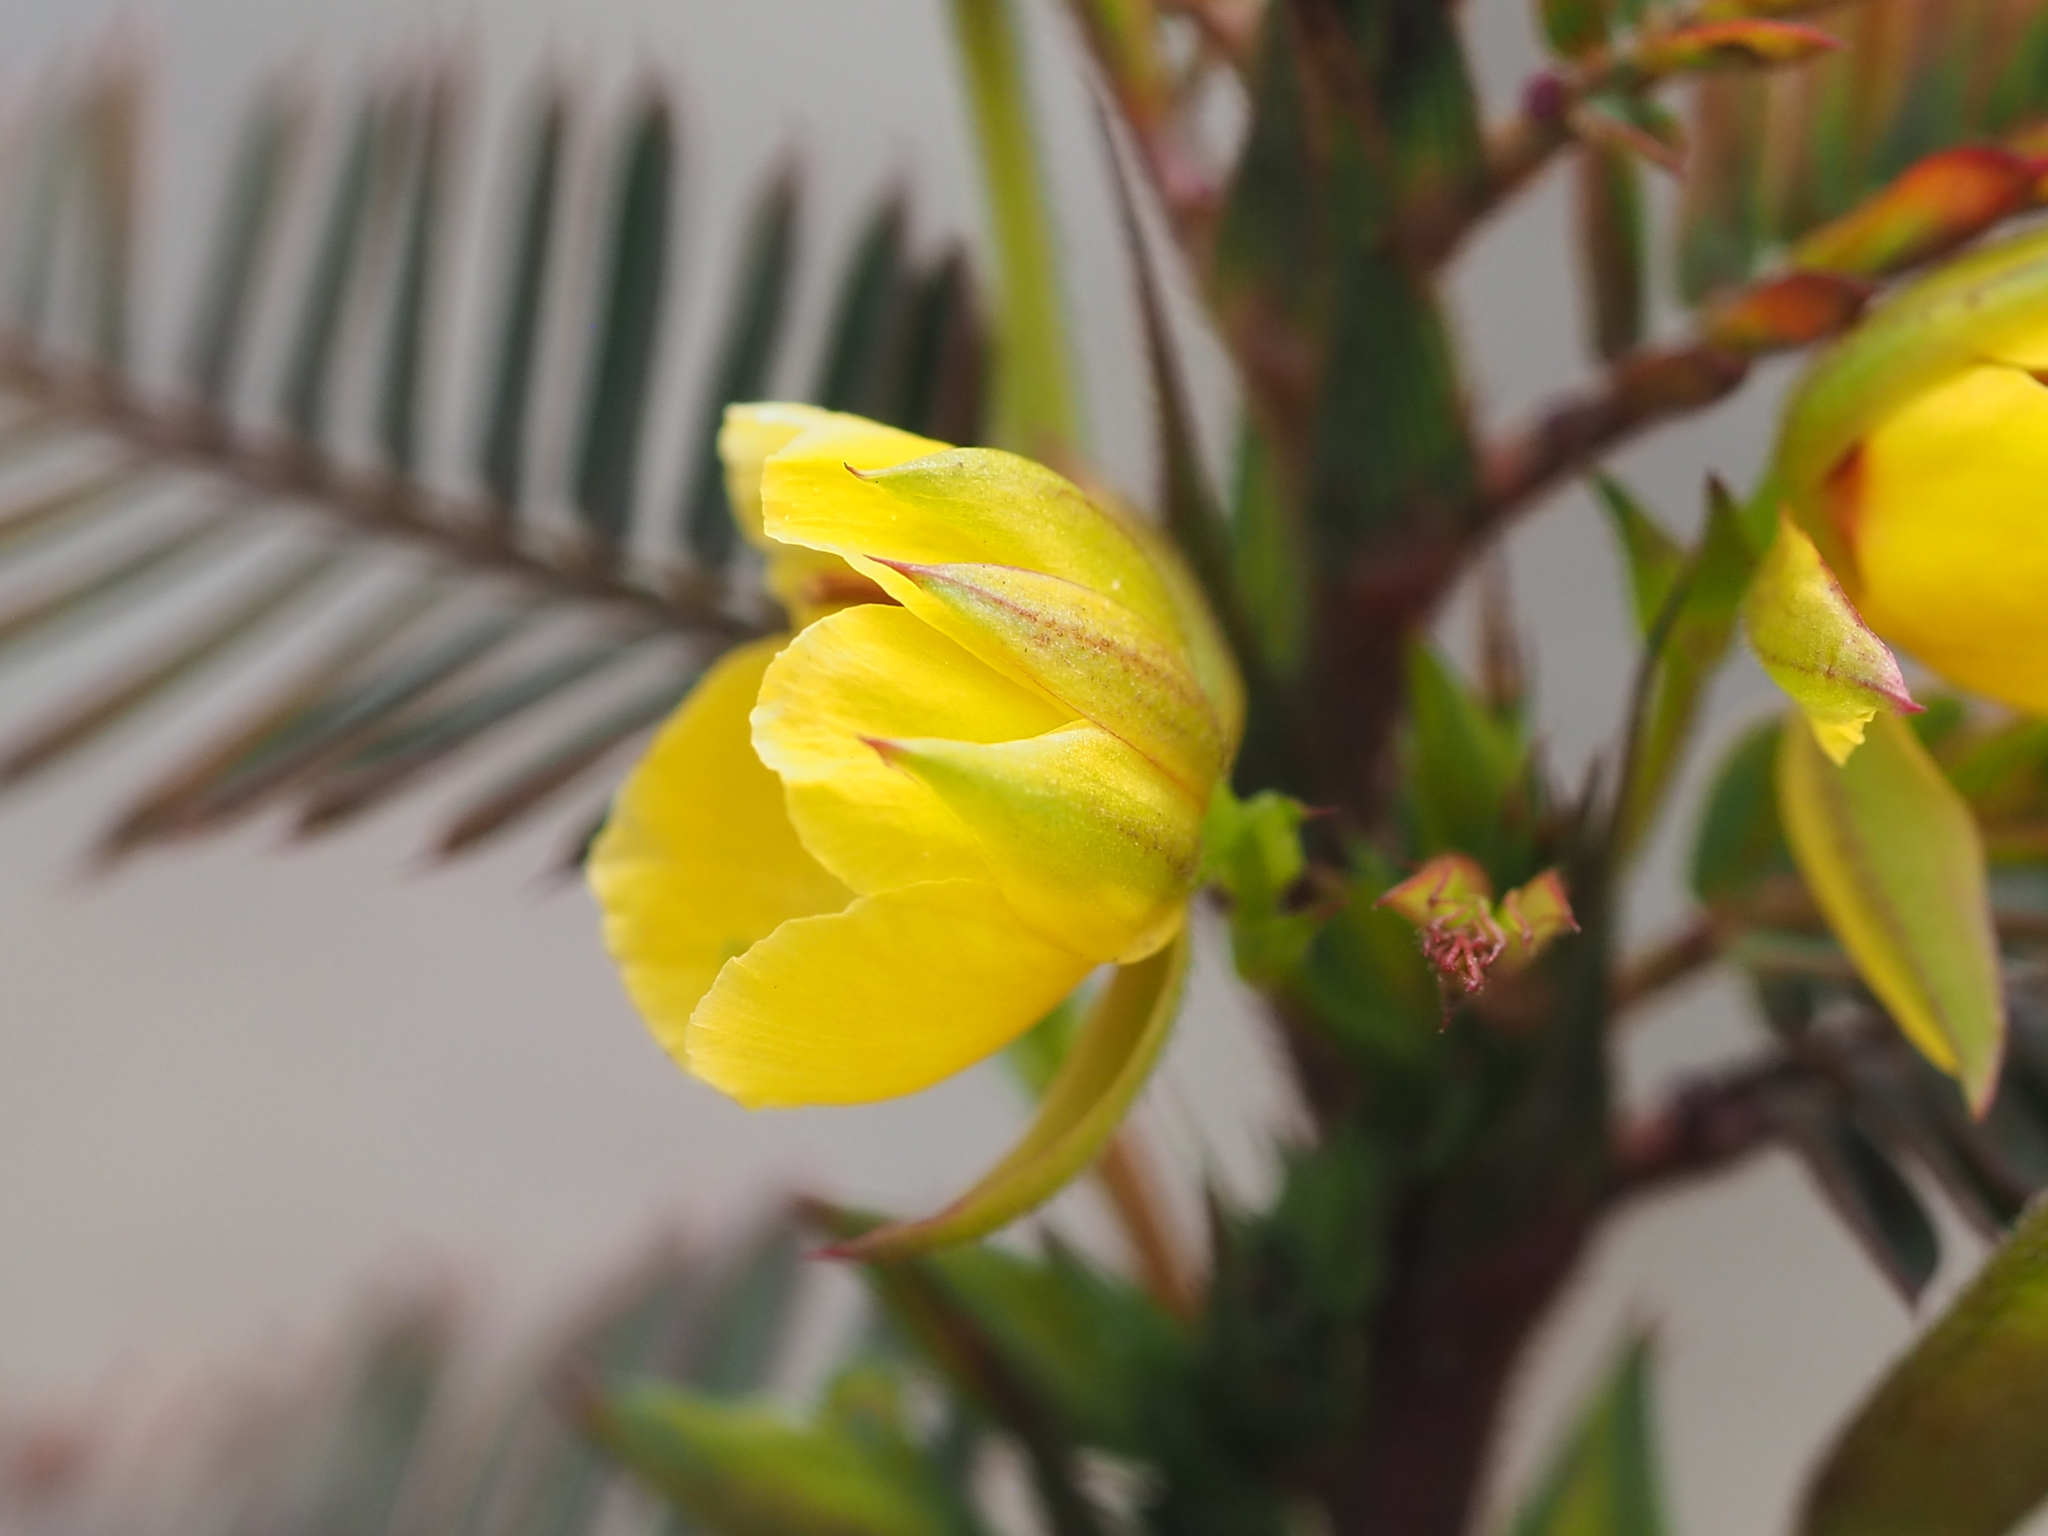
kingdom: Plantae
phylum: Tracheophyta
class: Magnoliopsida
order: Fabales
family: Fabaceae
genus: Chamaecrista
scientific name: Chamaecrista nictitans
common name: Sensitive cassia
